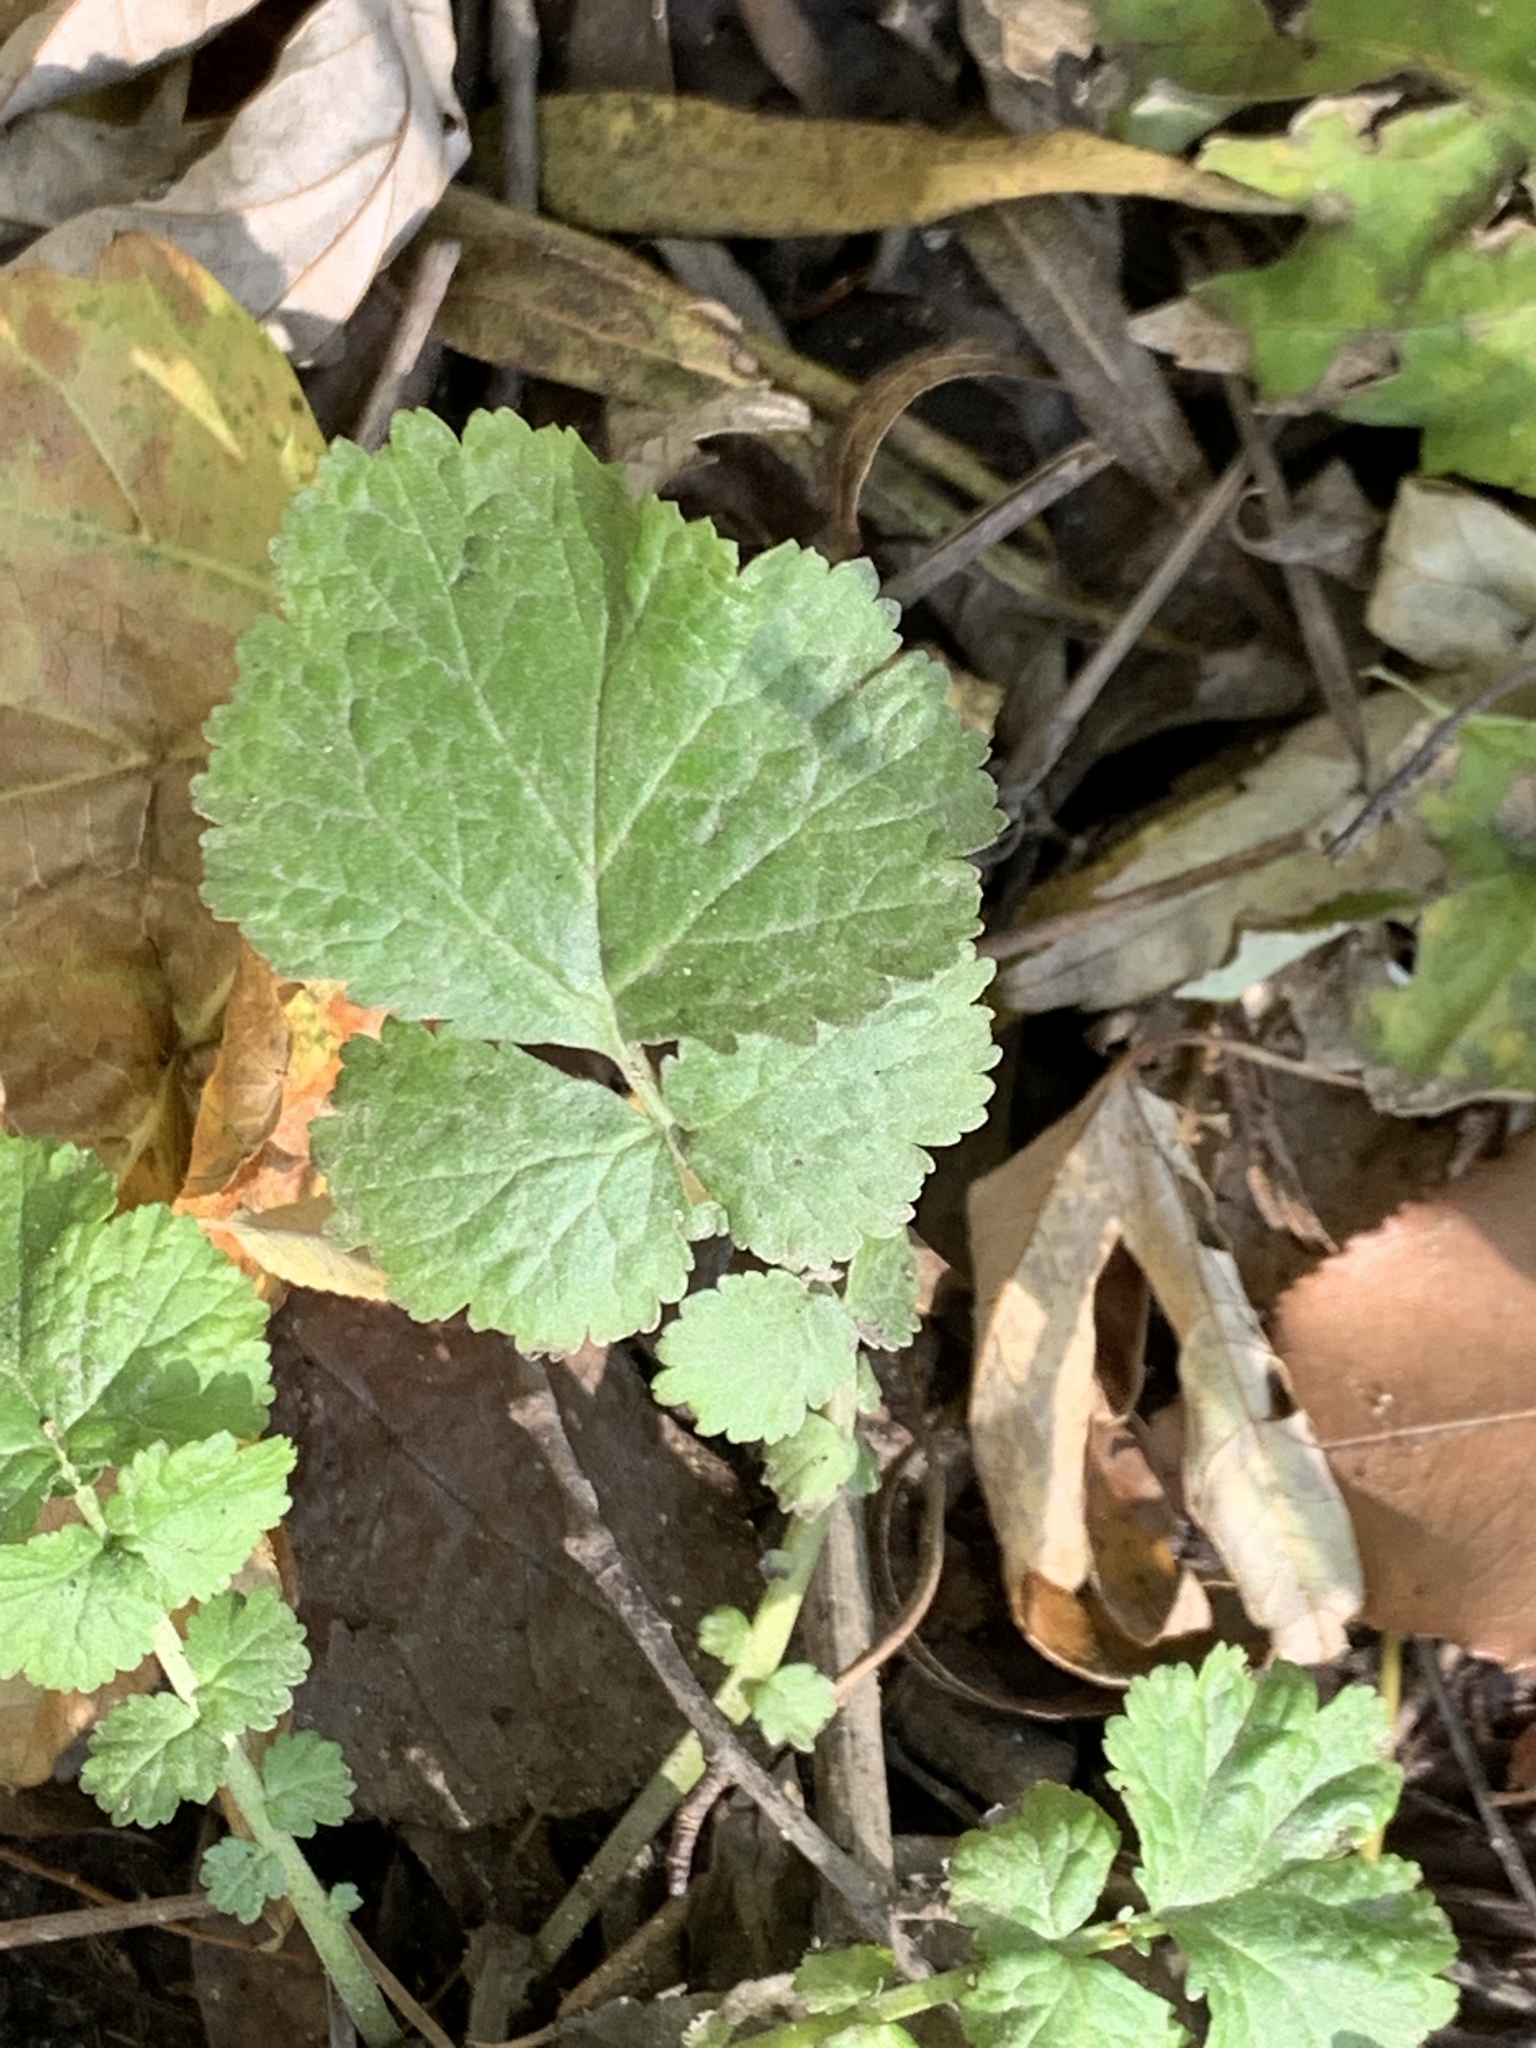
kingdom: Plantae
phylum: Tracheophyta
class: Magnoliopsida
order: Rosales
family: Rosaceae
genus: Geum
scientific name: Geum canadense
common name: White avens
